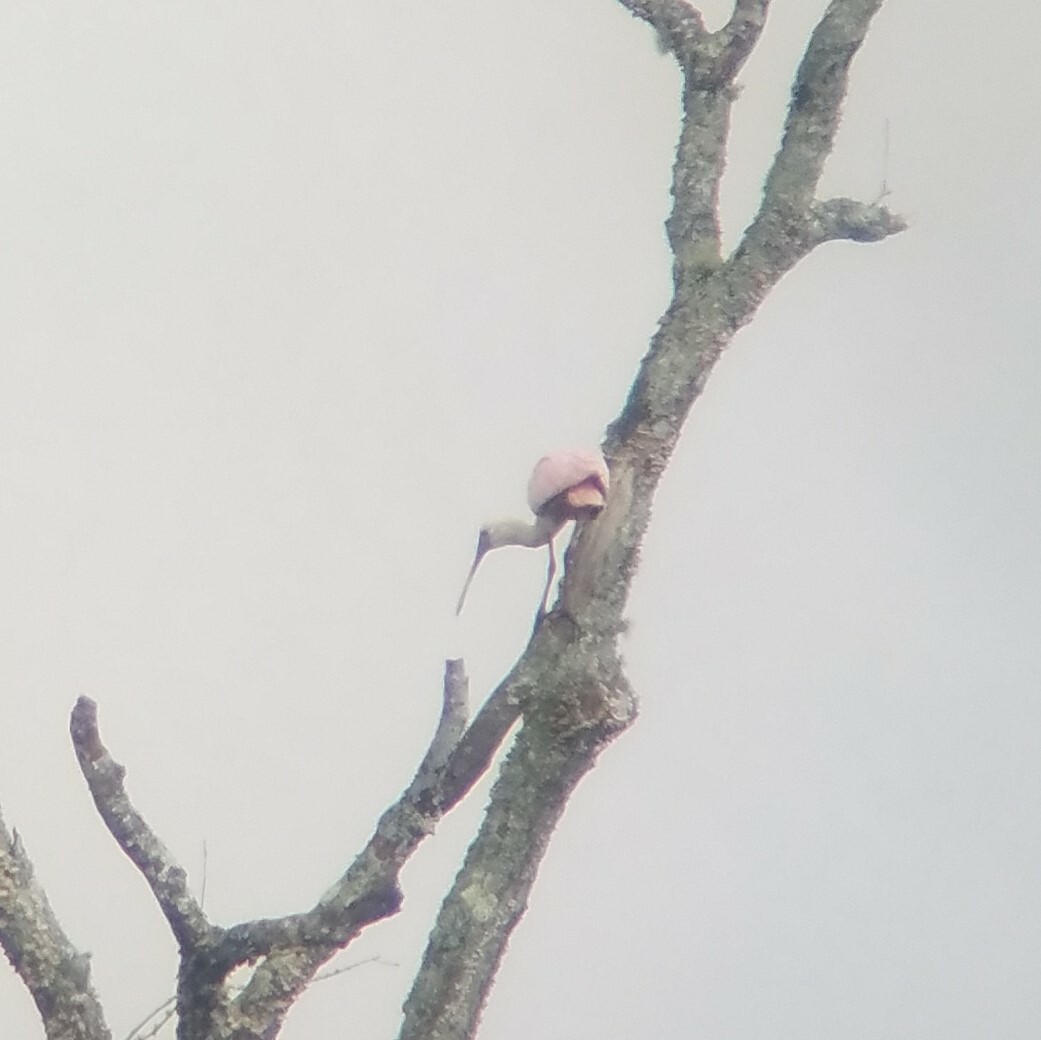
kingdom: Animalia
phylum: Chordata
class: Aves
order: Pelecaniformes
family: Threskiornithidae
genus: Platalea
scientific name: Platalea ajaja
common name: Roseate spoonbill
